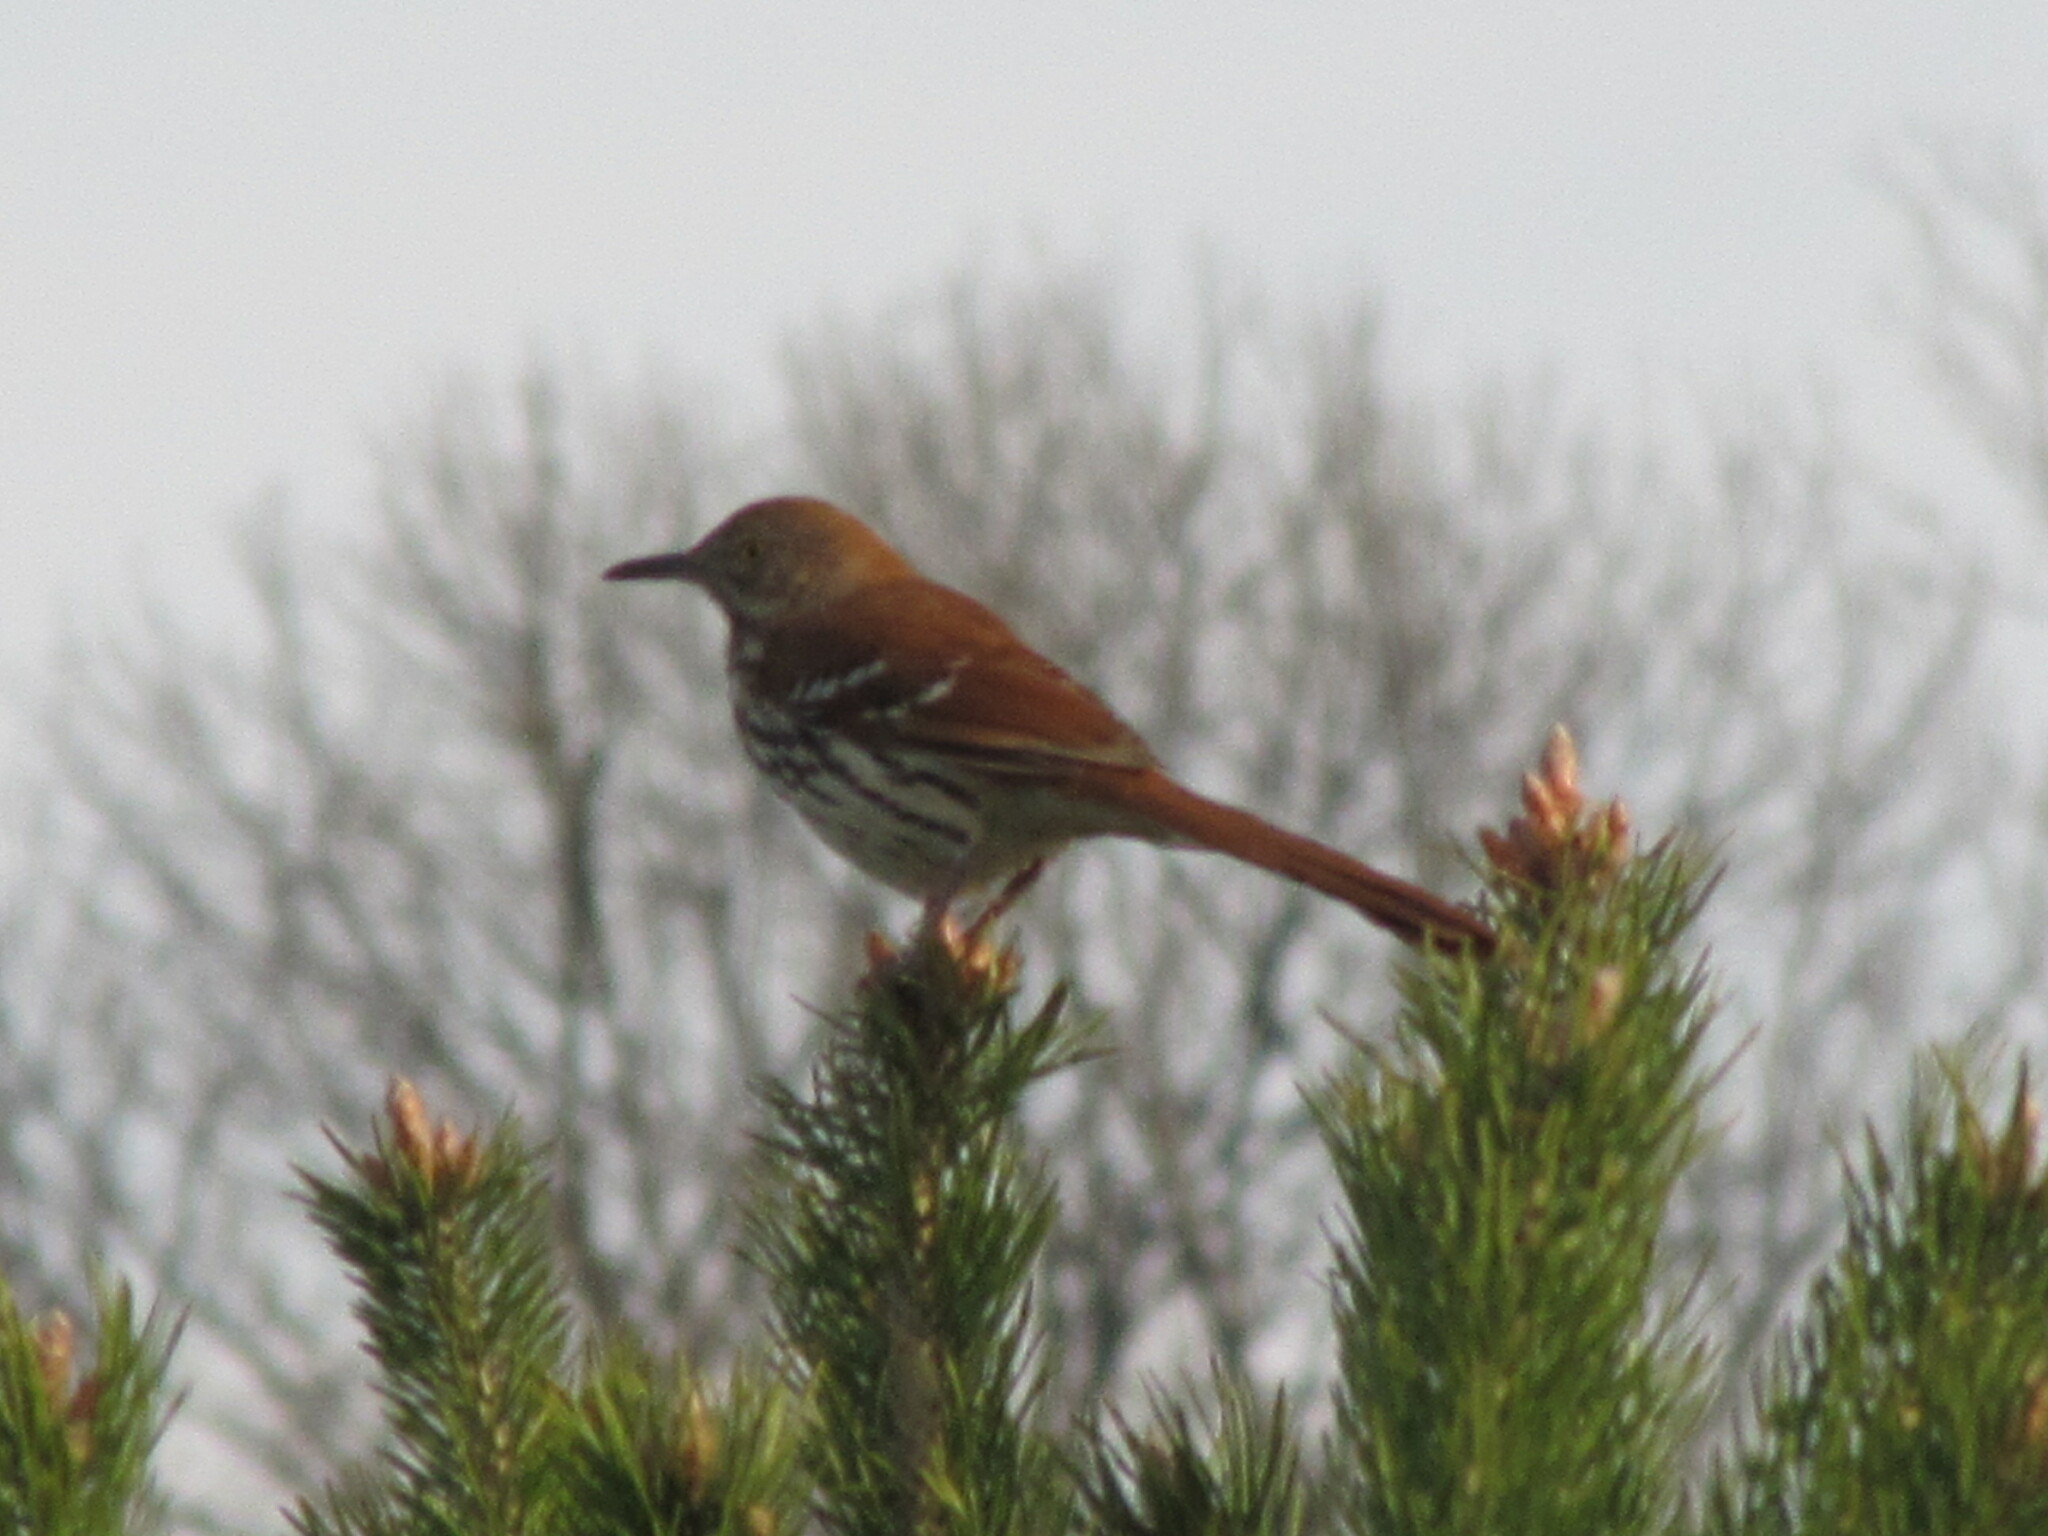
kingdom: Animalia
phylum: Chordata
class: Aves
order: Passeriformes
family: Mimidae
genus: Toxostoma
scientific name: Toxostoma rufum
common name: Brown thrasher
